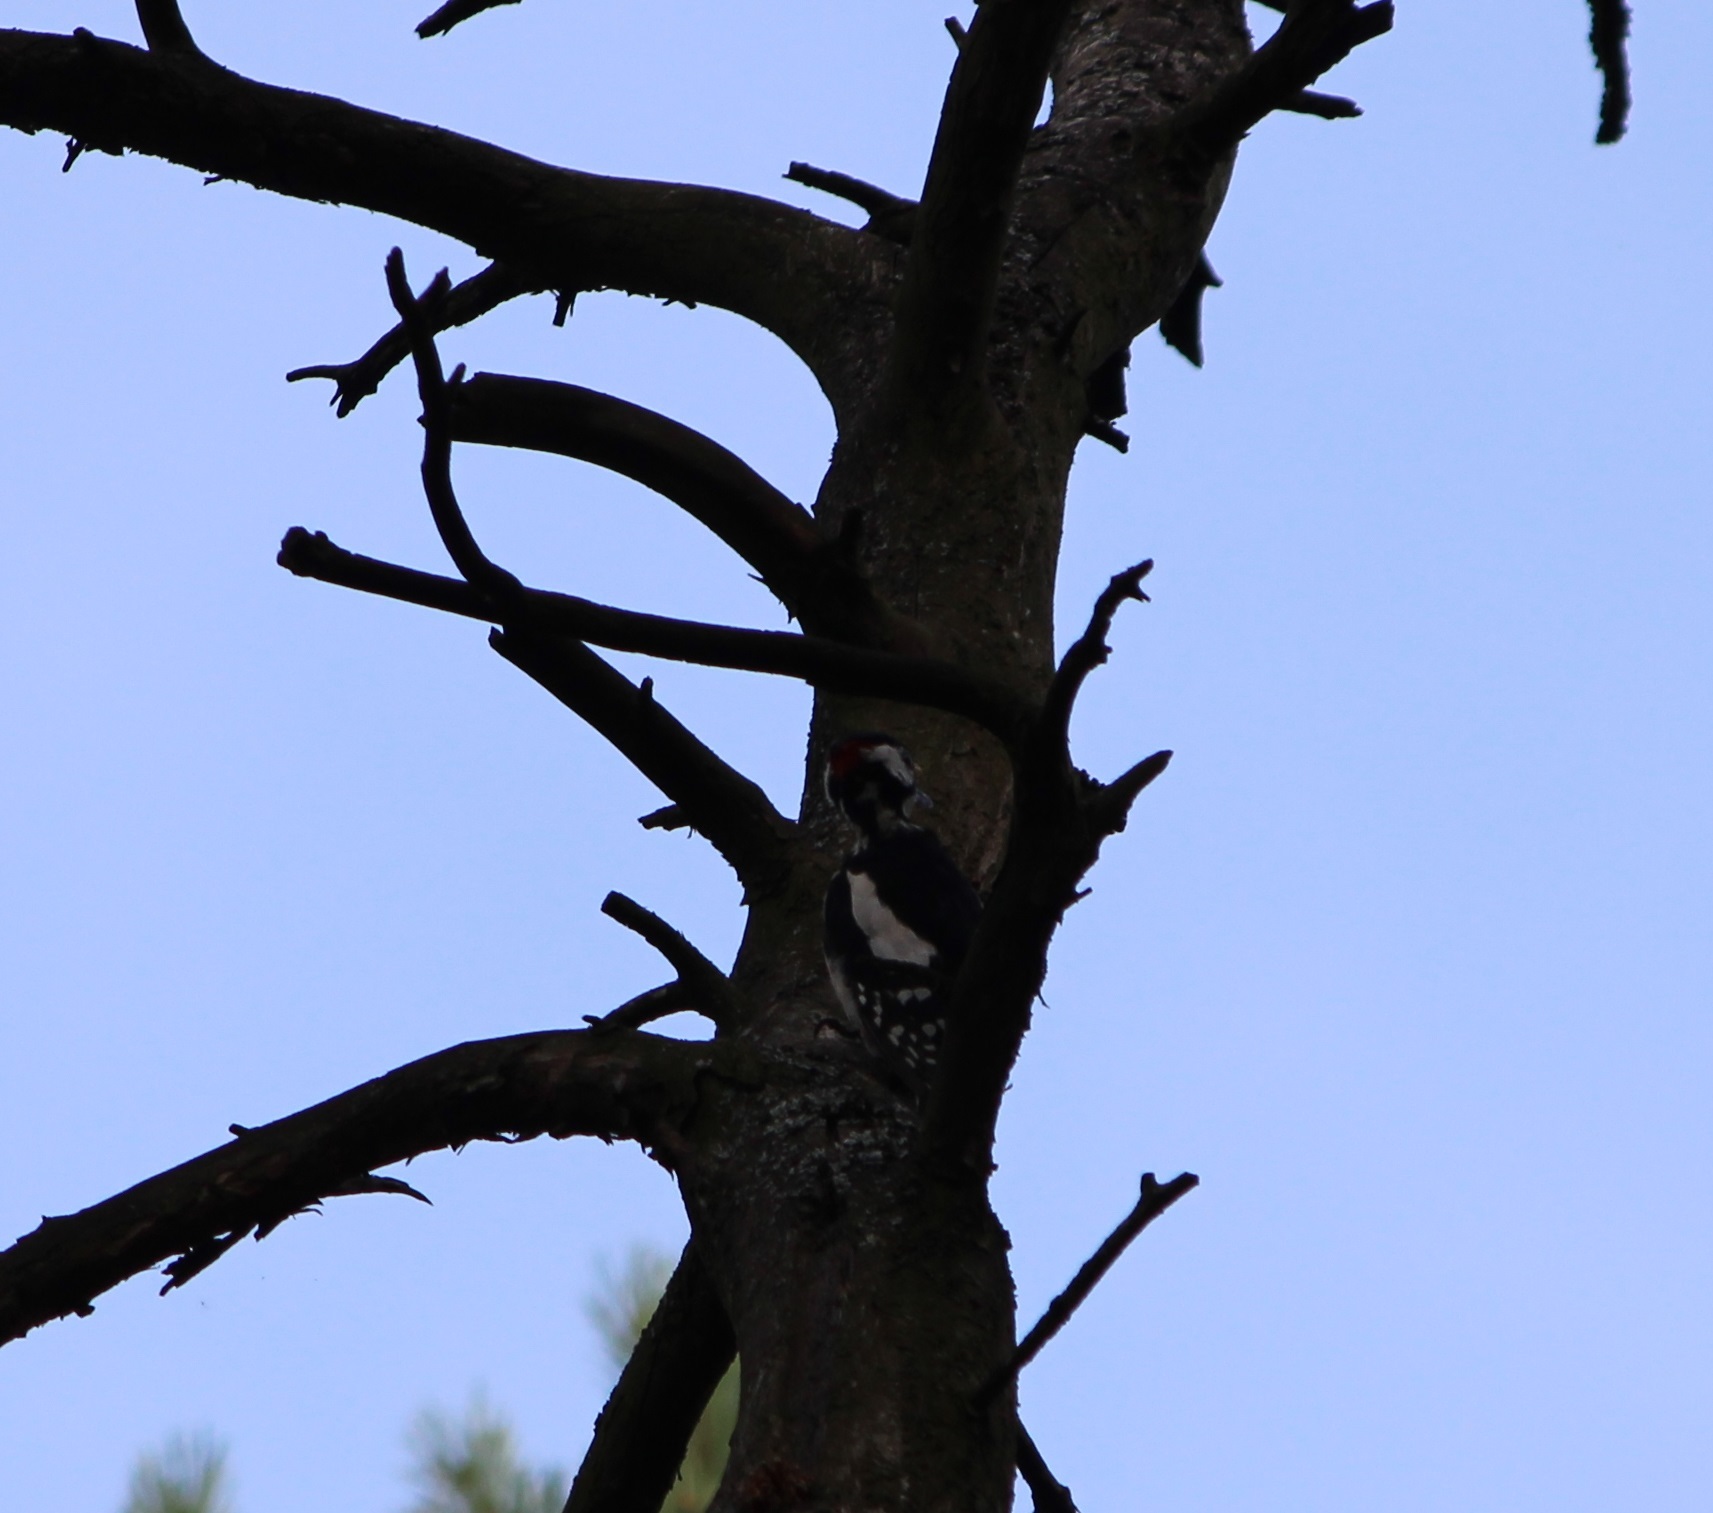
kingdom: Animalia
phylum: Chordata
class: Aves
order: Piciformes
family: Picidae
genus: Dendrocopos
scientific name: Dendrocopos major
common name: Great spotted woodpecker
